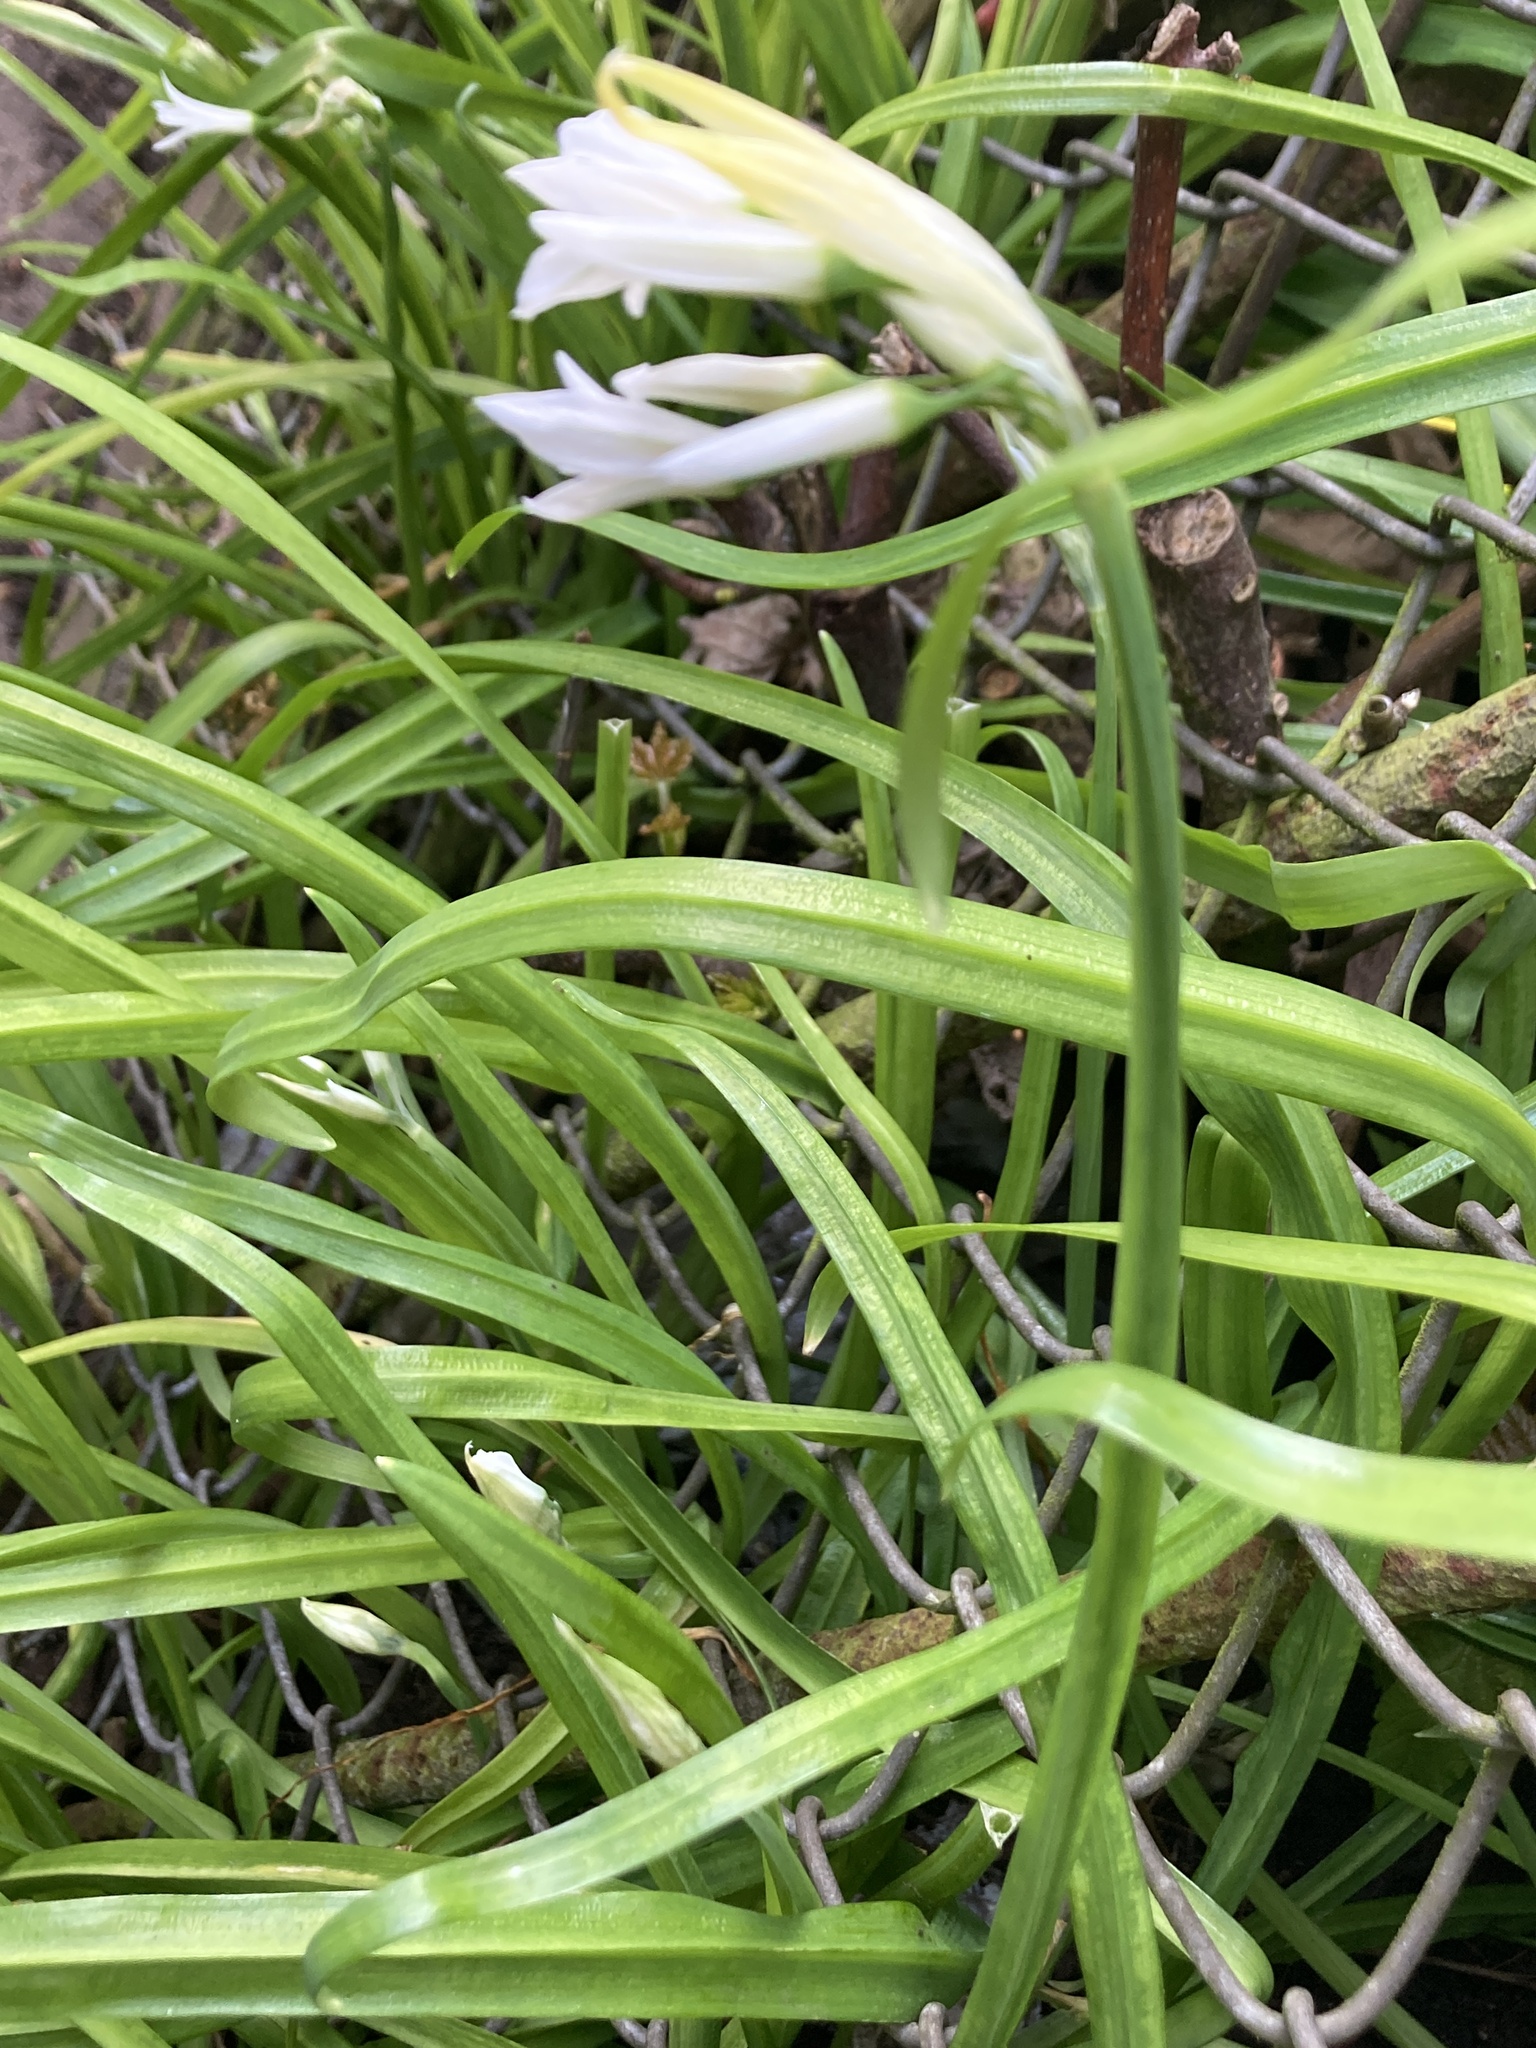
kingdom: Plantae
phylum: Tracheophyta
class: Liliopsida
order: Asparagales
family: Amaryllidaceae
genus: Allium
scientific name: Allium triquetrum
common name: Three-cornered garlic
